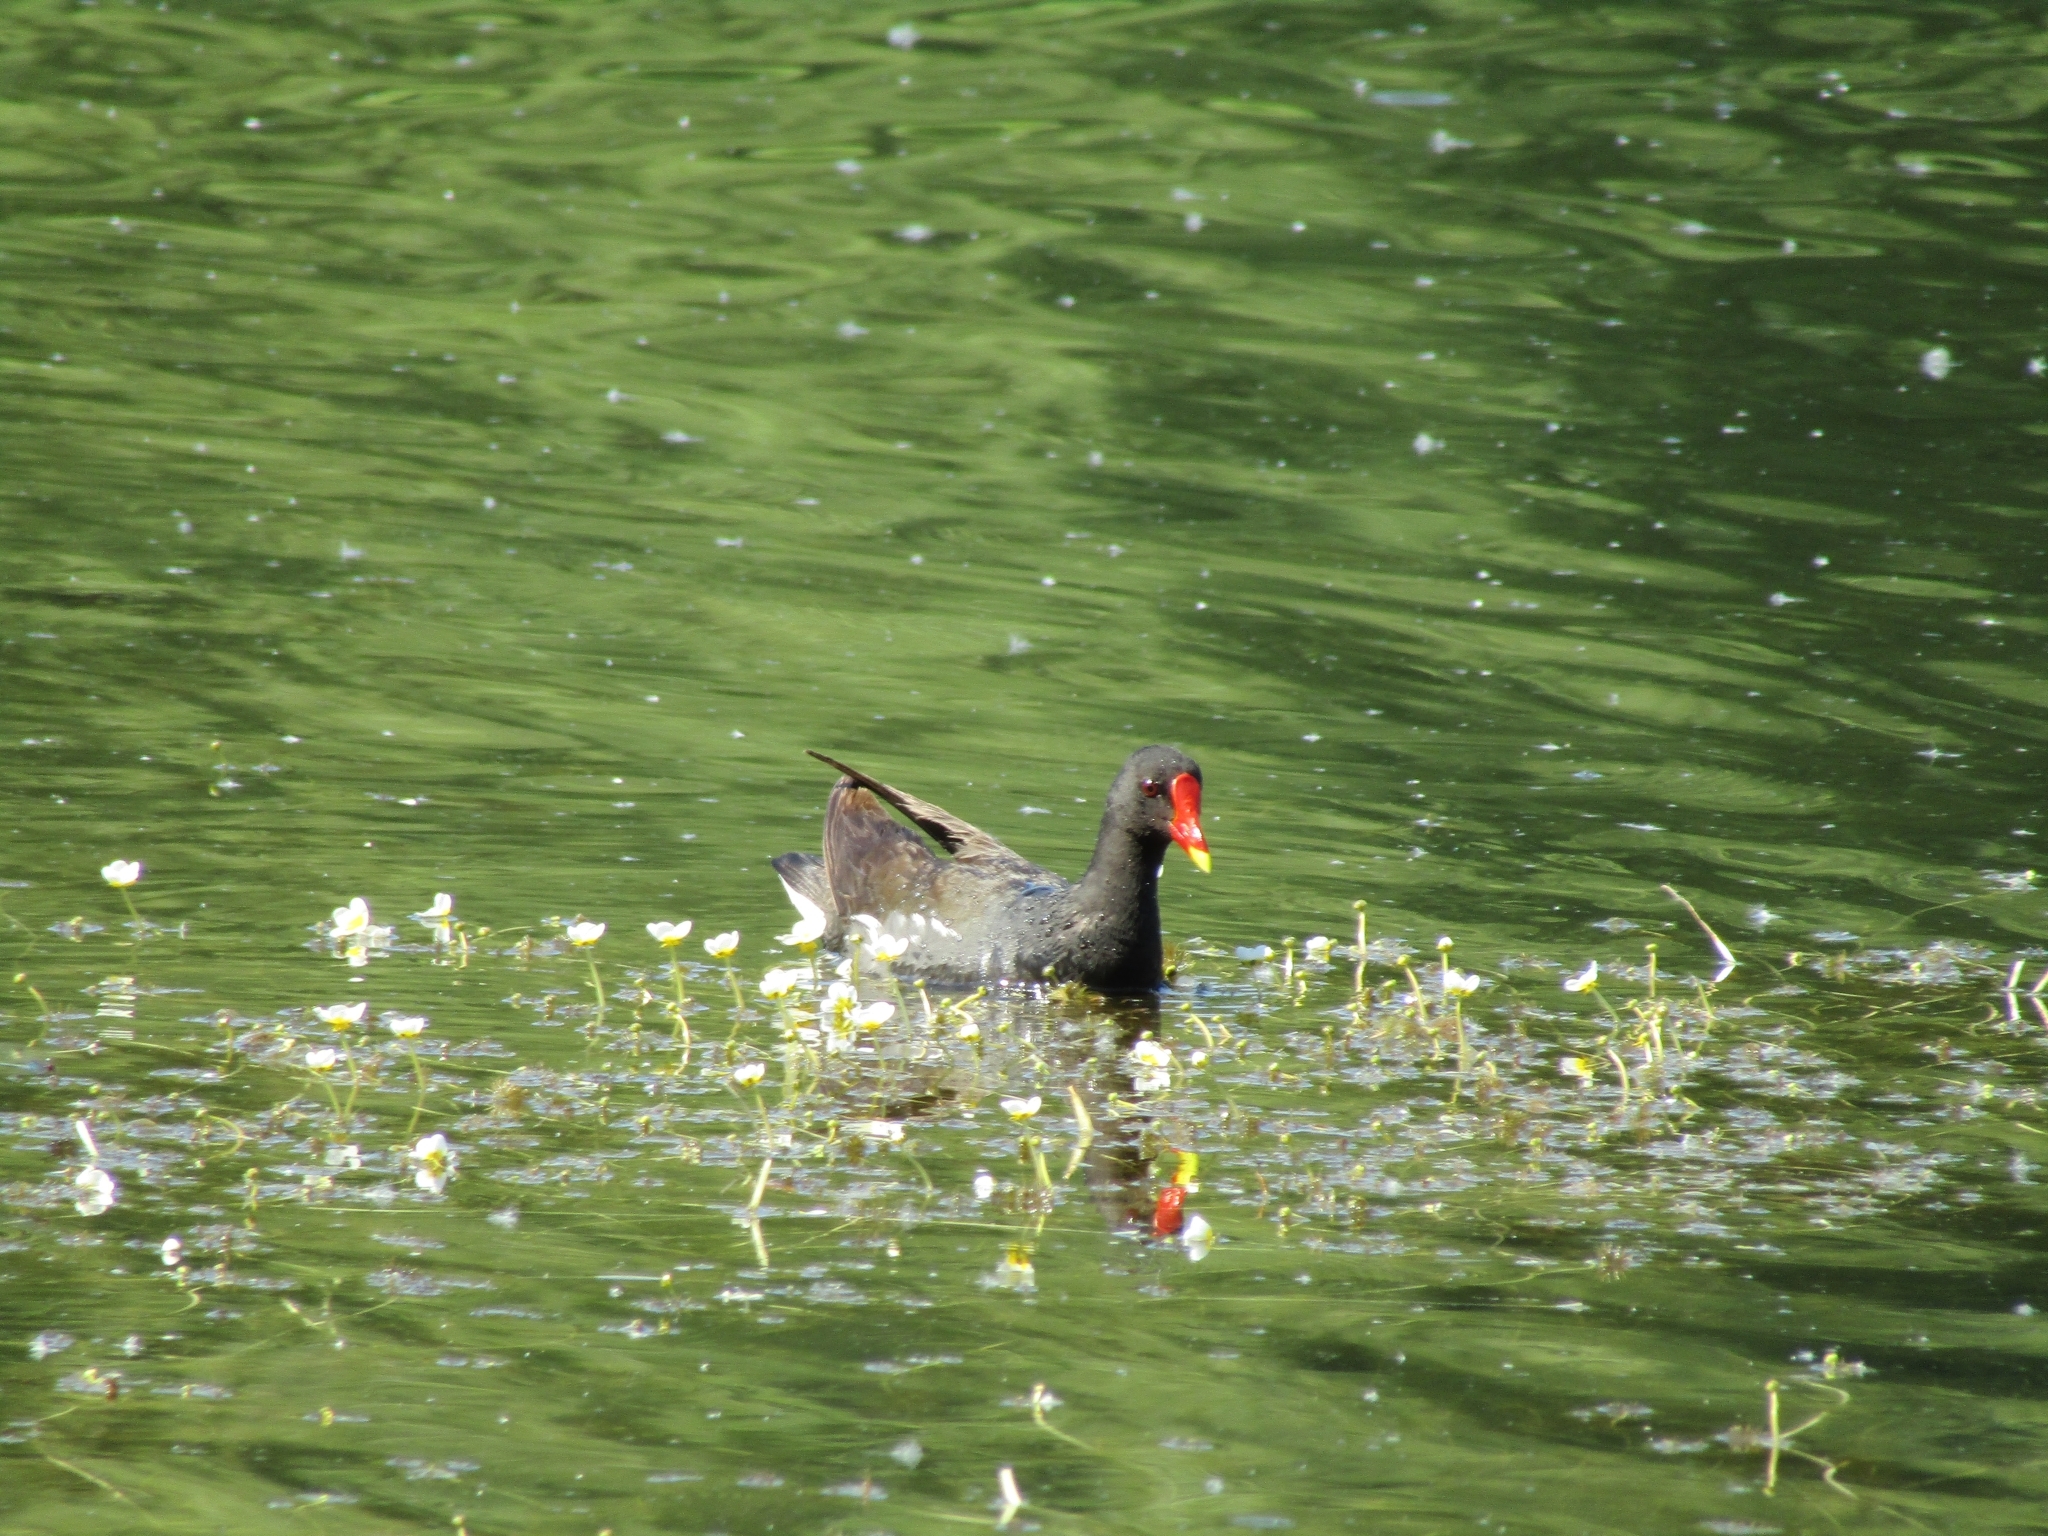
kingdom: Animalia
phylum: Chordata
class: Aves
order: Gruiformes
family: Rallidae
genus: Gallinula
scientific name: Gallinula chloropus
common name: Common moorhen
